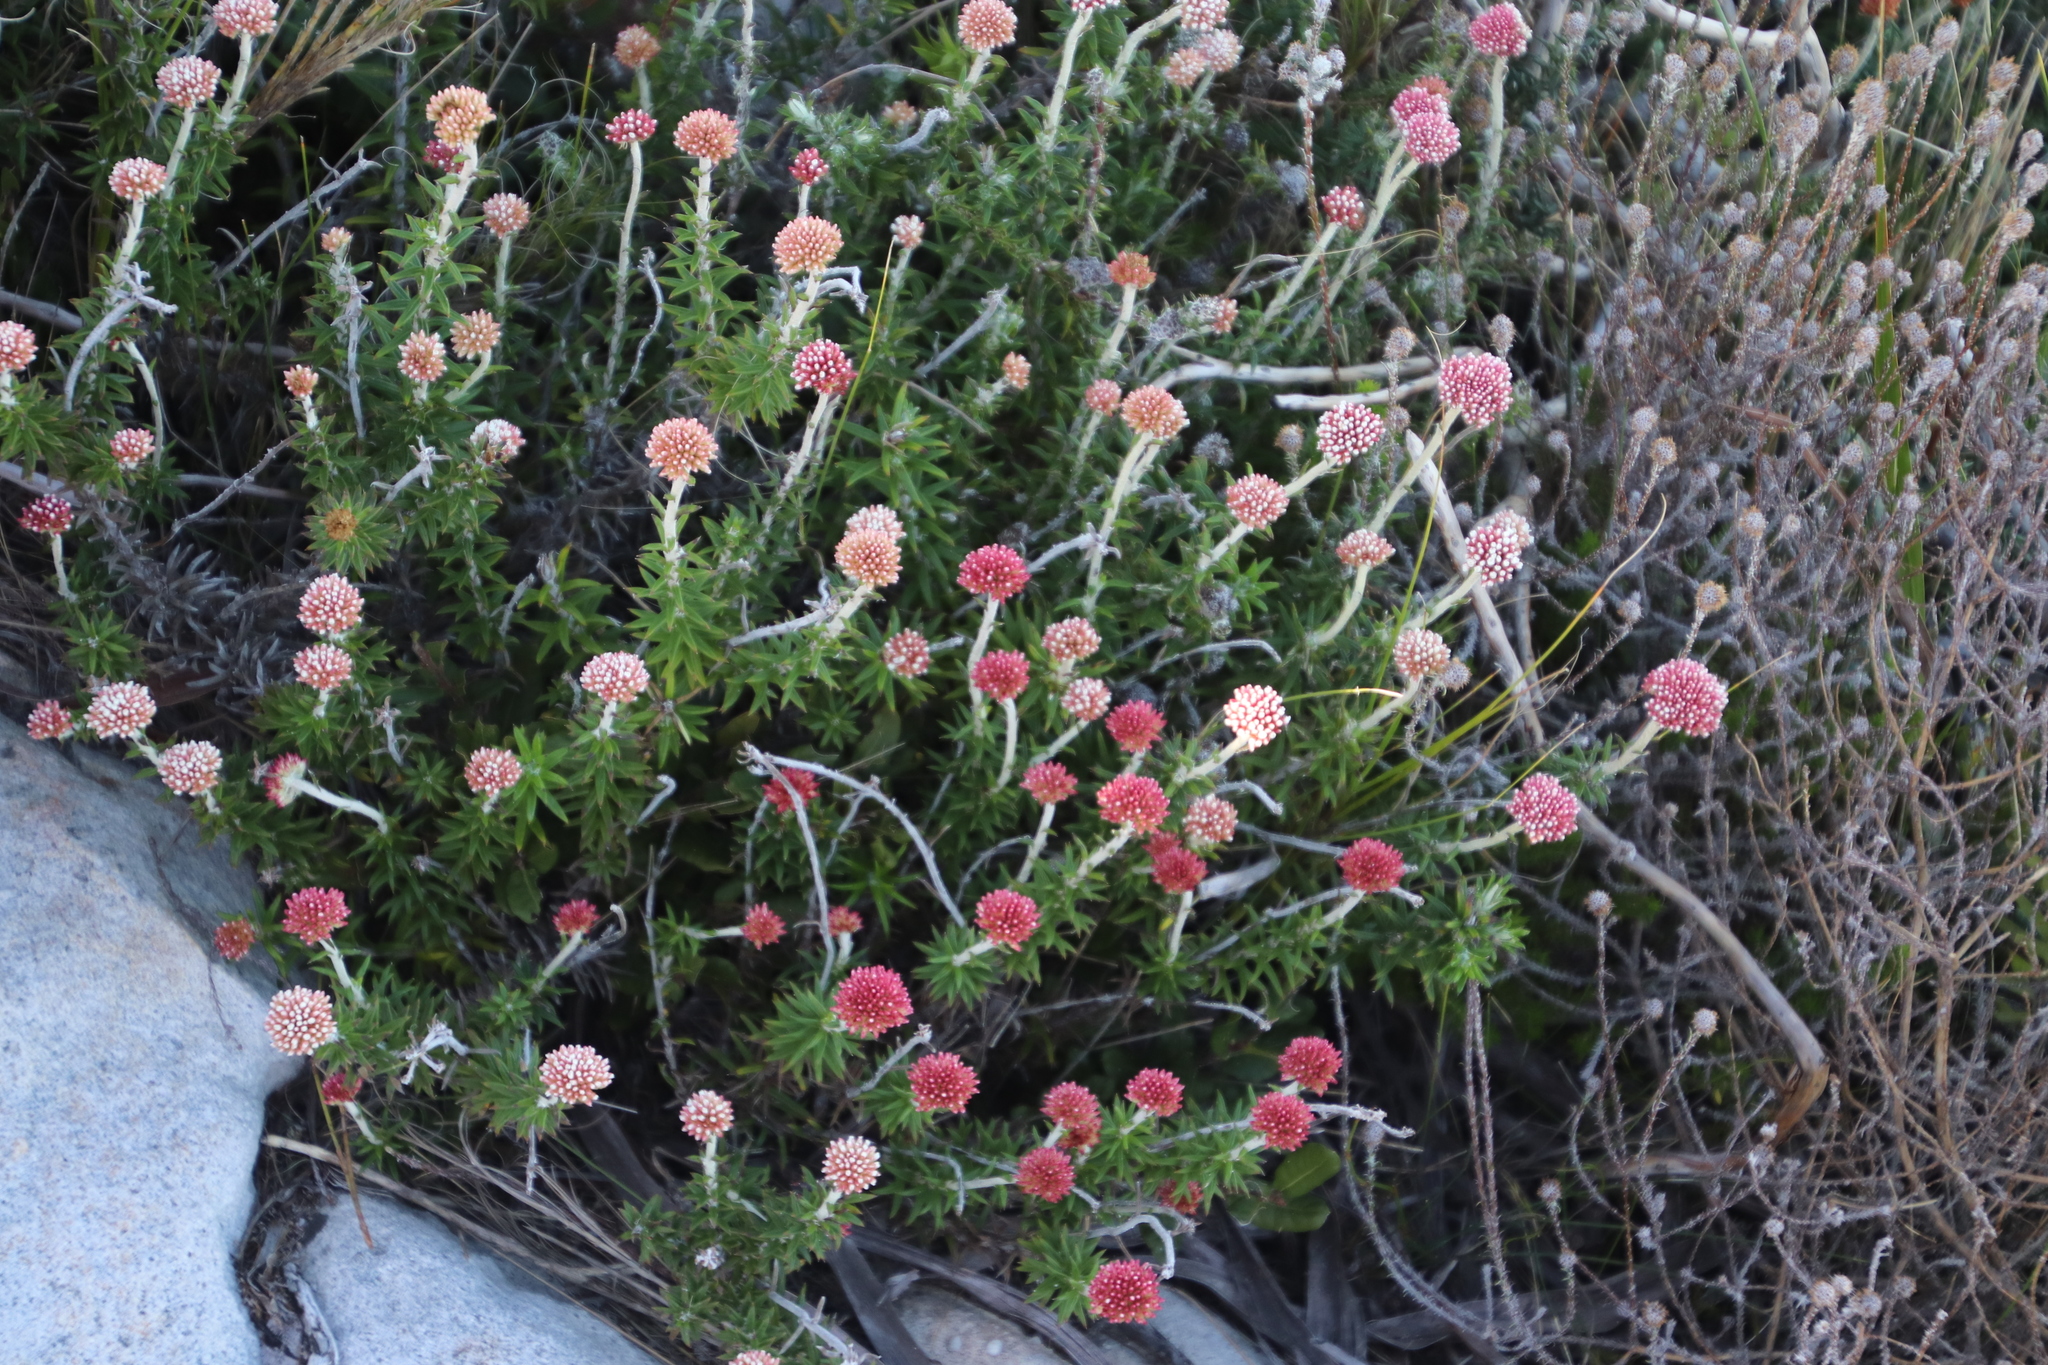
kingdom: Plantae
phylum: Tracheophyta
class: Magnoliopsida
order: Asterales
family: Asteraceae
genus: Anaxeton
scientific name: Anaxeton arborescens
